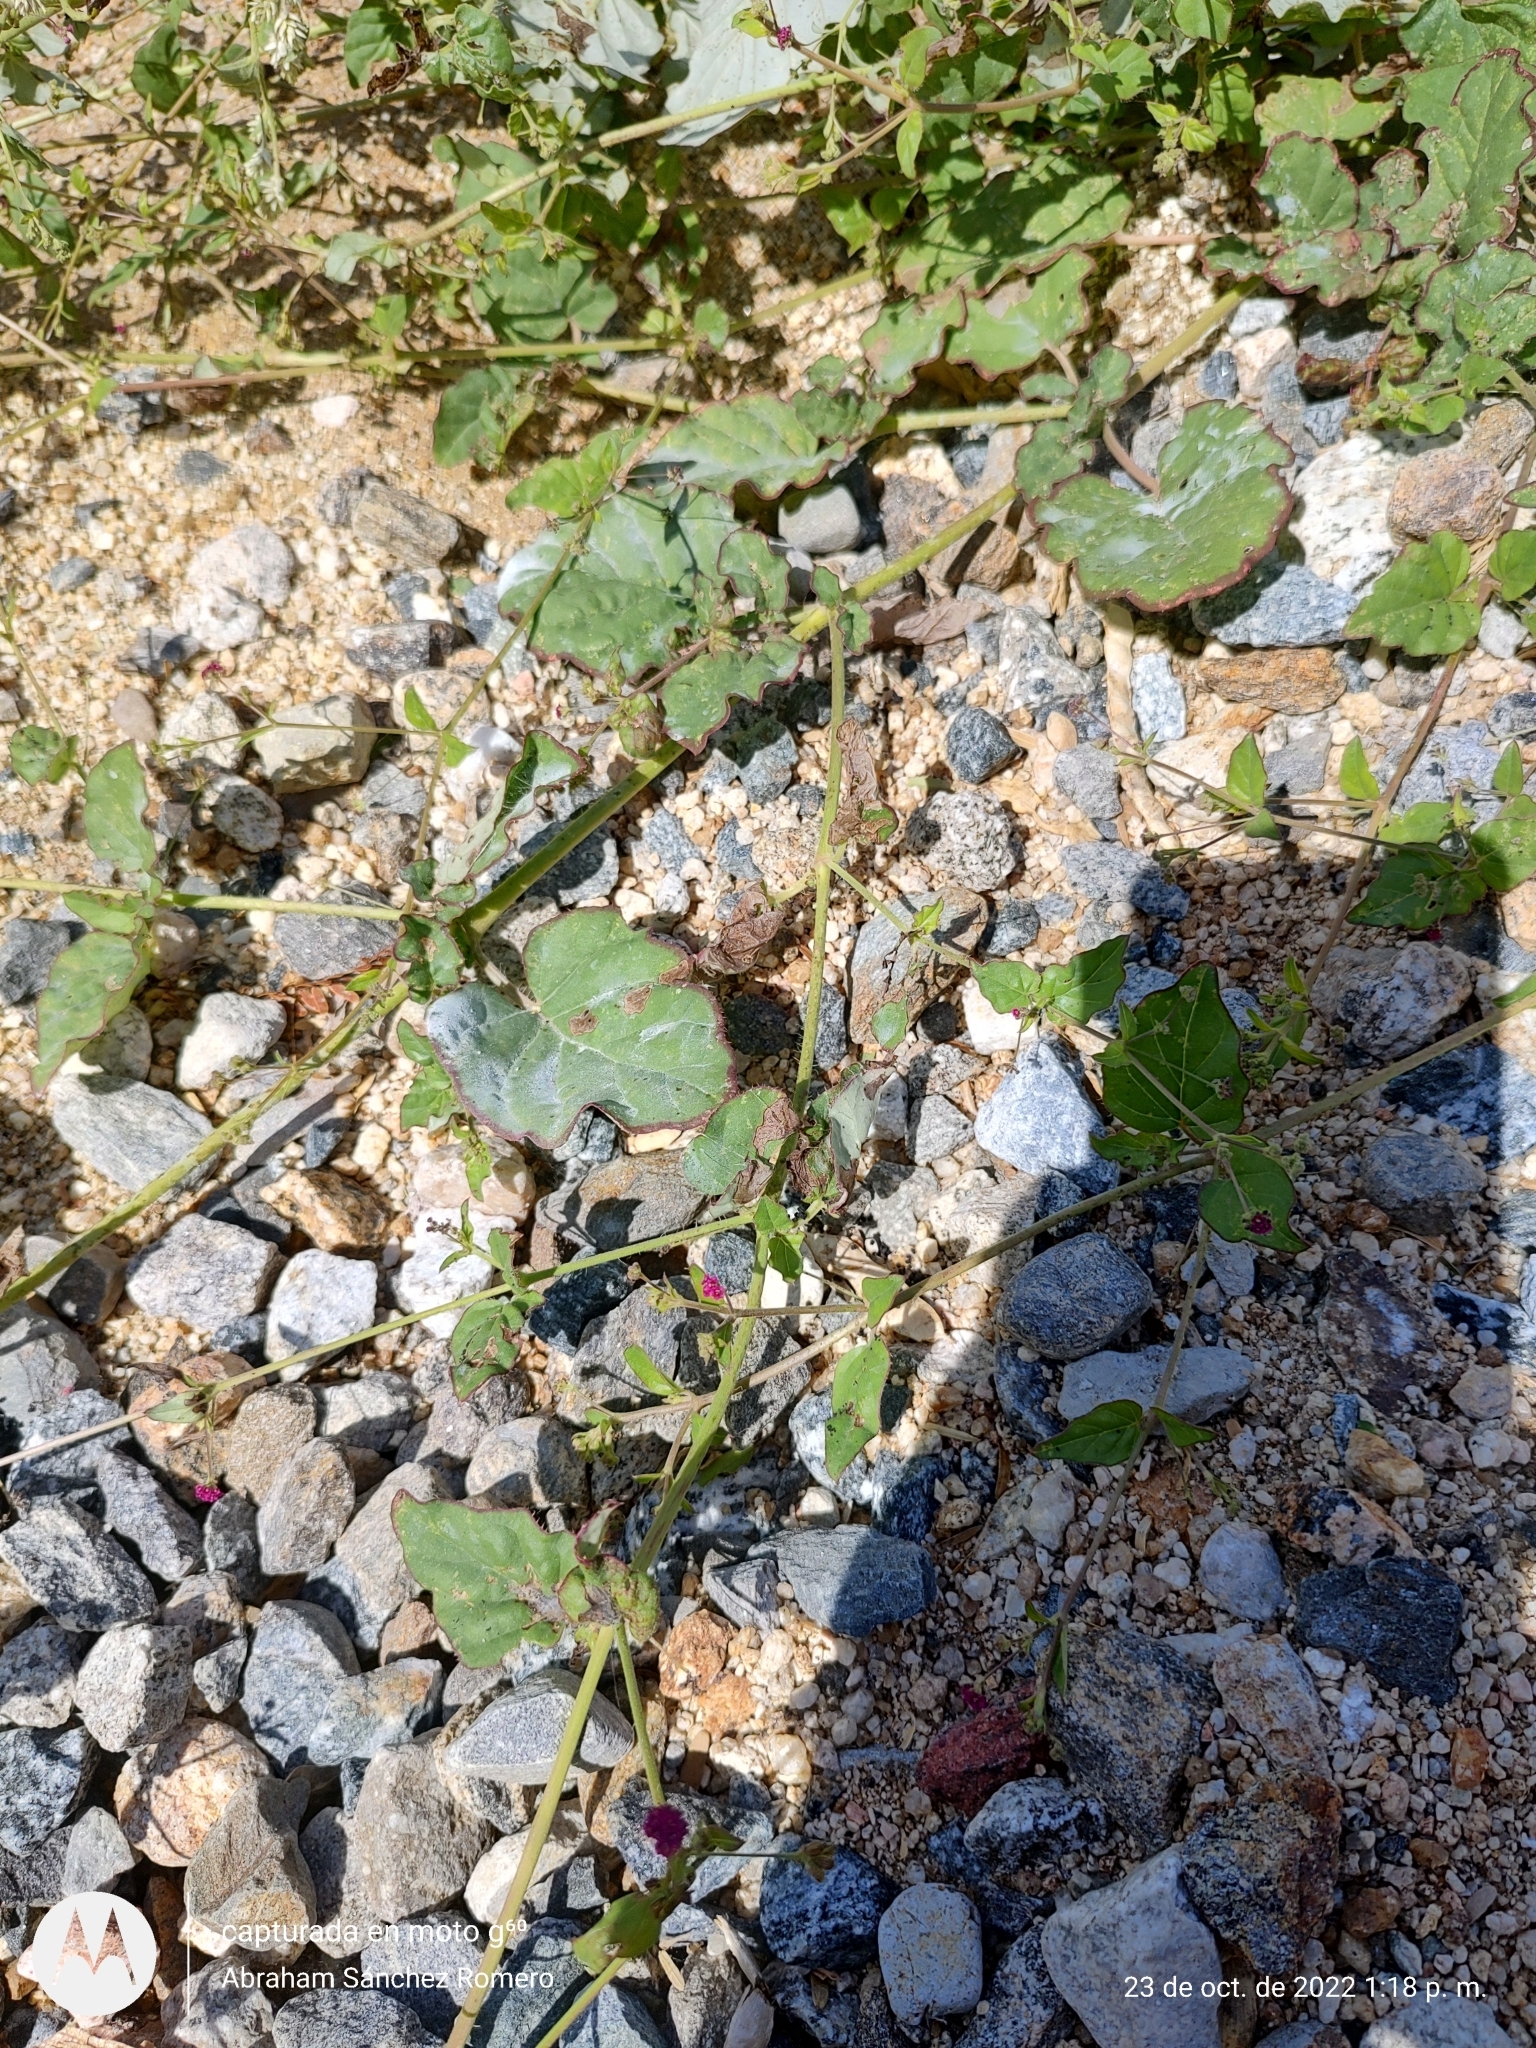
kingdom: Plantae
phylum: Tracheophyta
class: Magnoliopsida
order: Caryophyllales
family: Nyctaginaceae
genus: Boerhavia
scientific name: Boerhavia coccinea
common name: Scarlet spiderling
